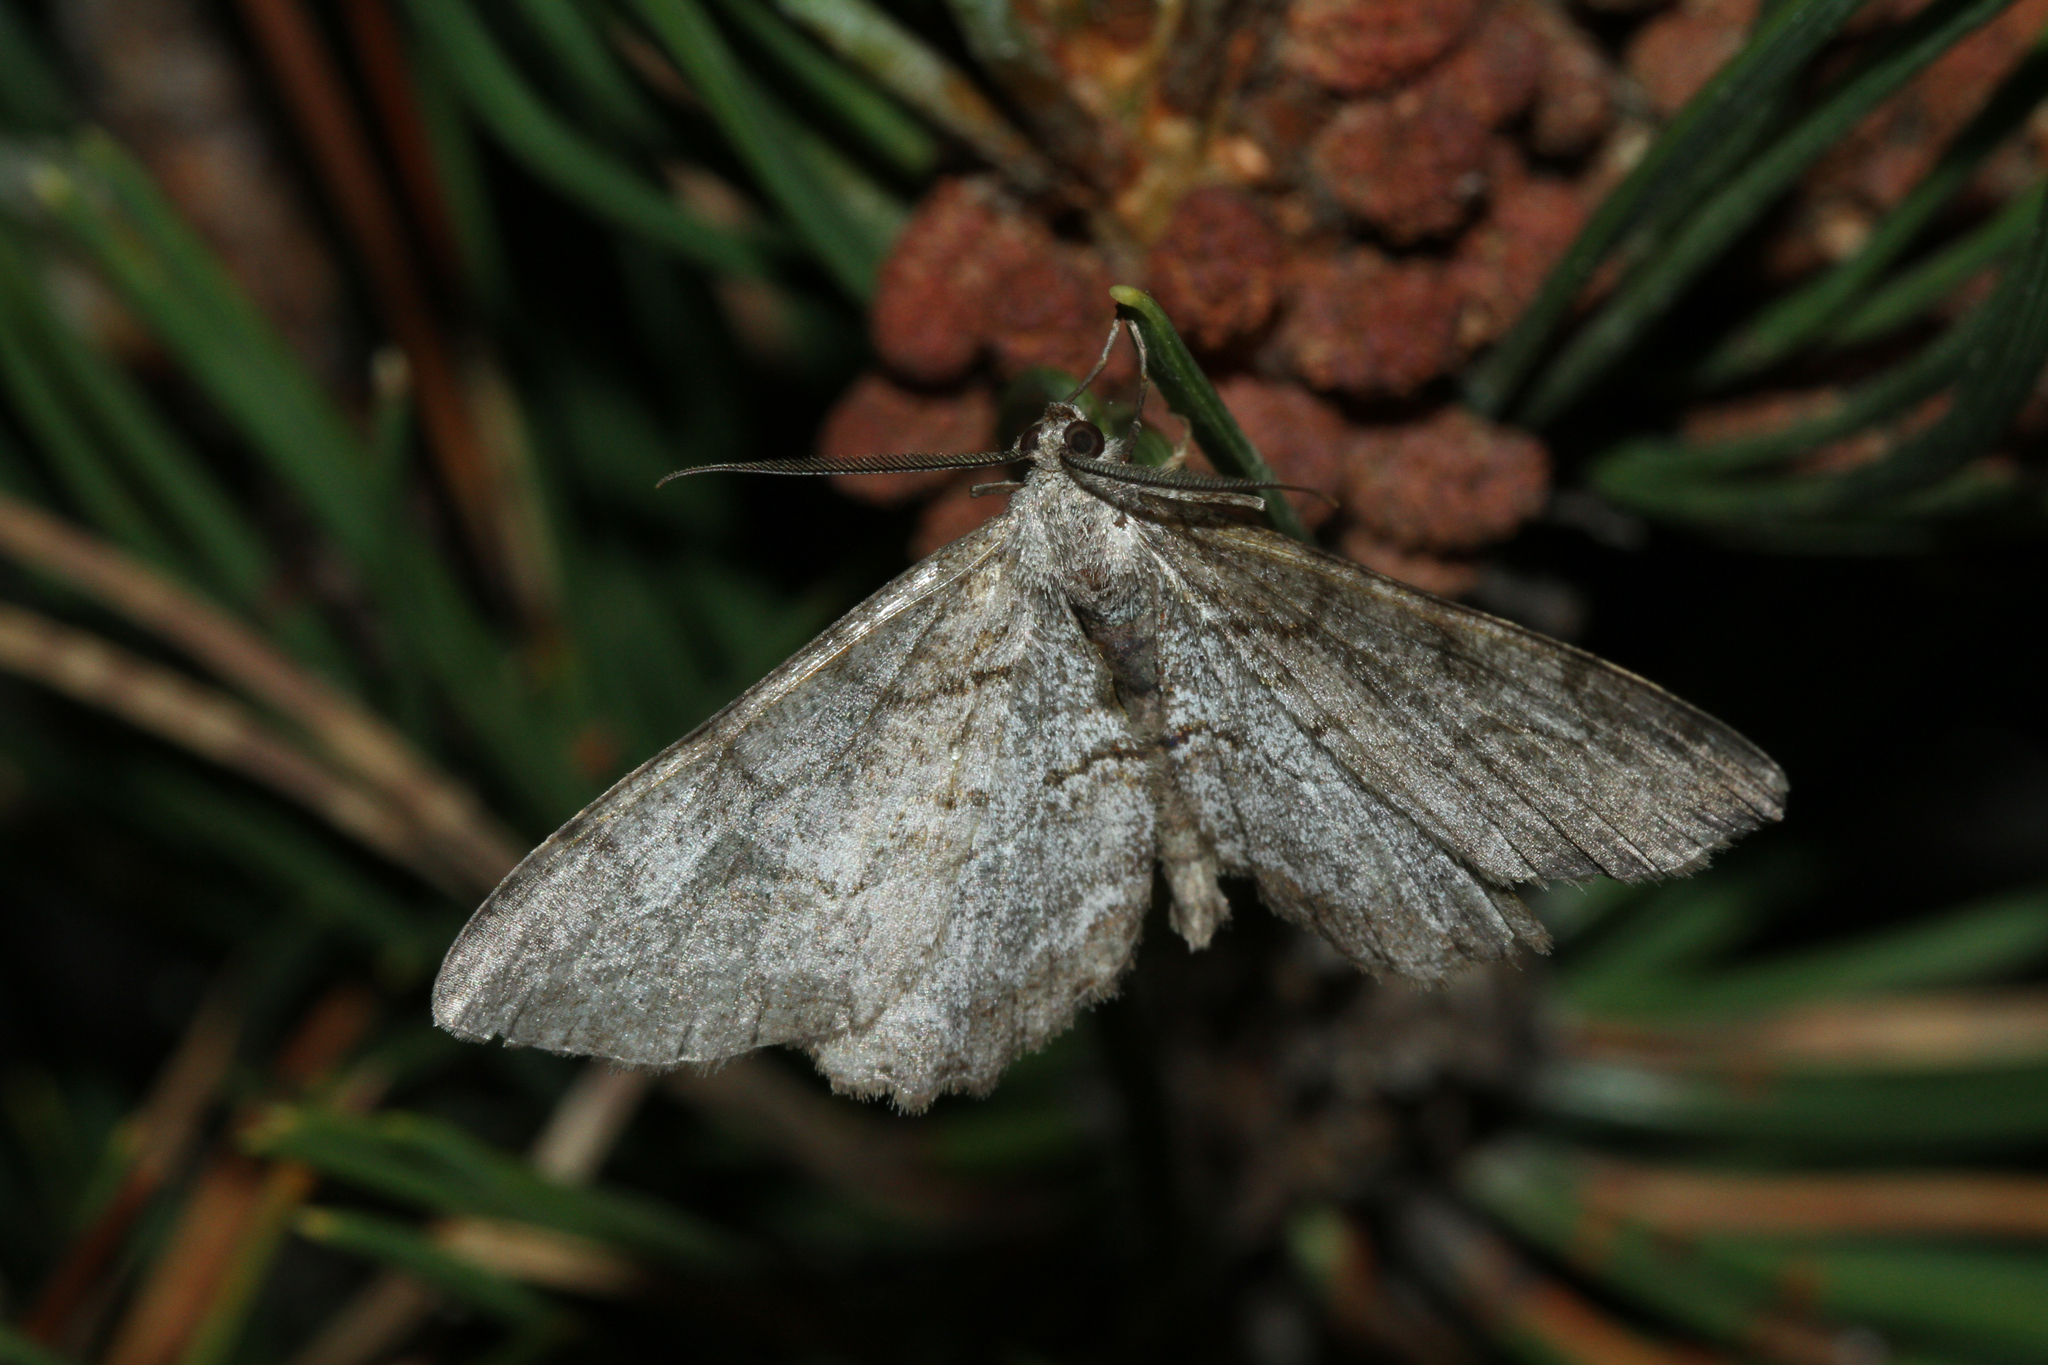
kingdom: Animalia
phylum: Arthropoda
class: Insecta
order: Lepidoptera
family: Geometridae
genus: Alcis
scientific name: Alcis repandata
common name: Mottled beauty
